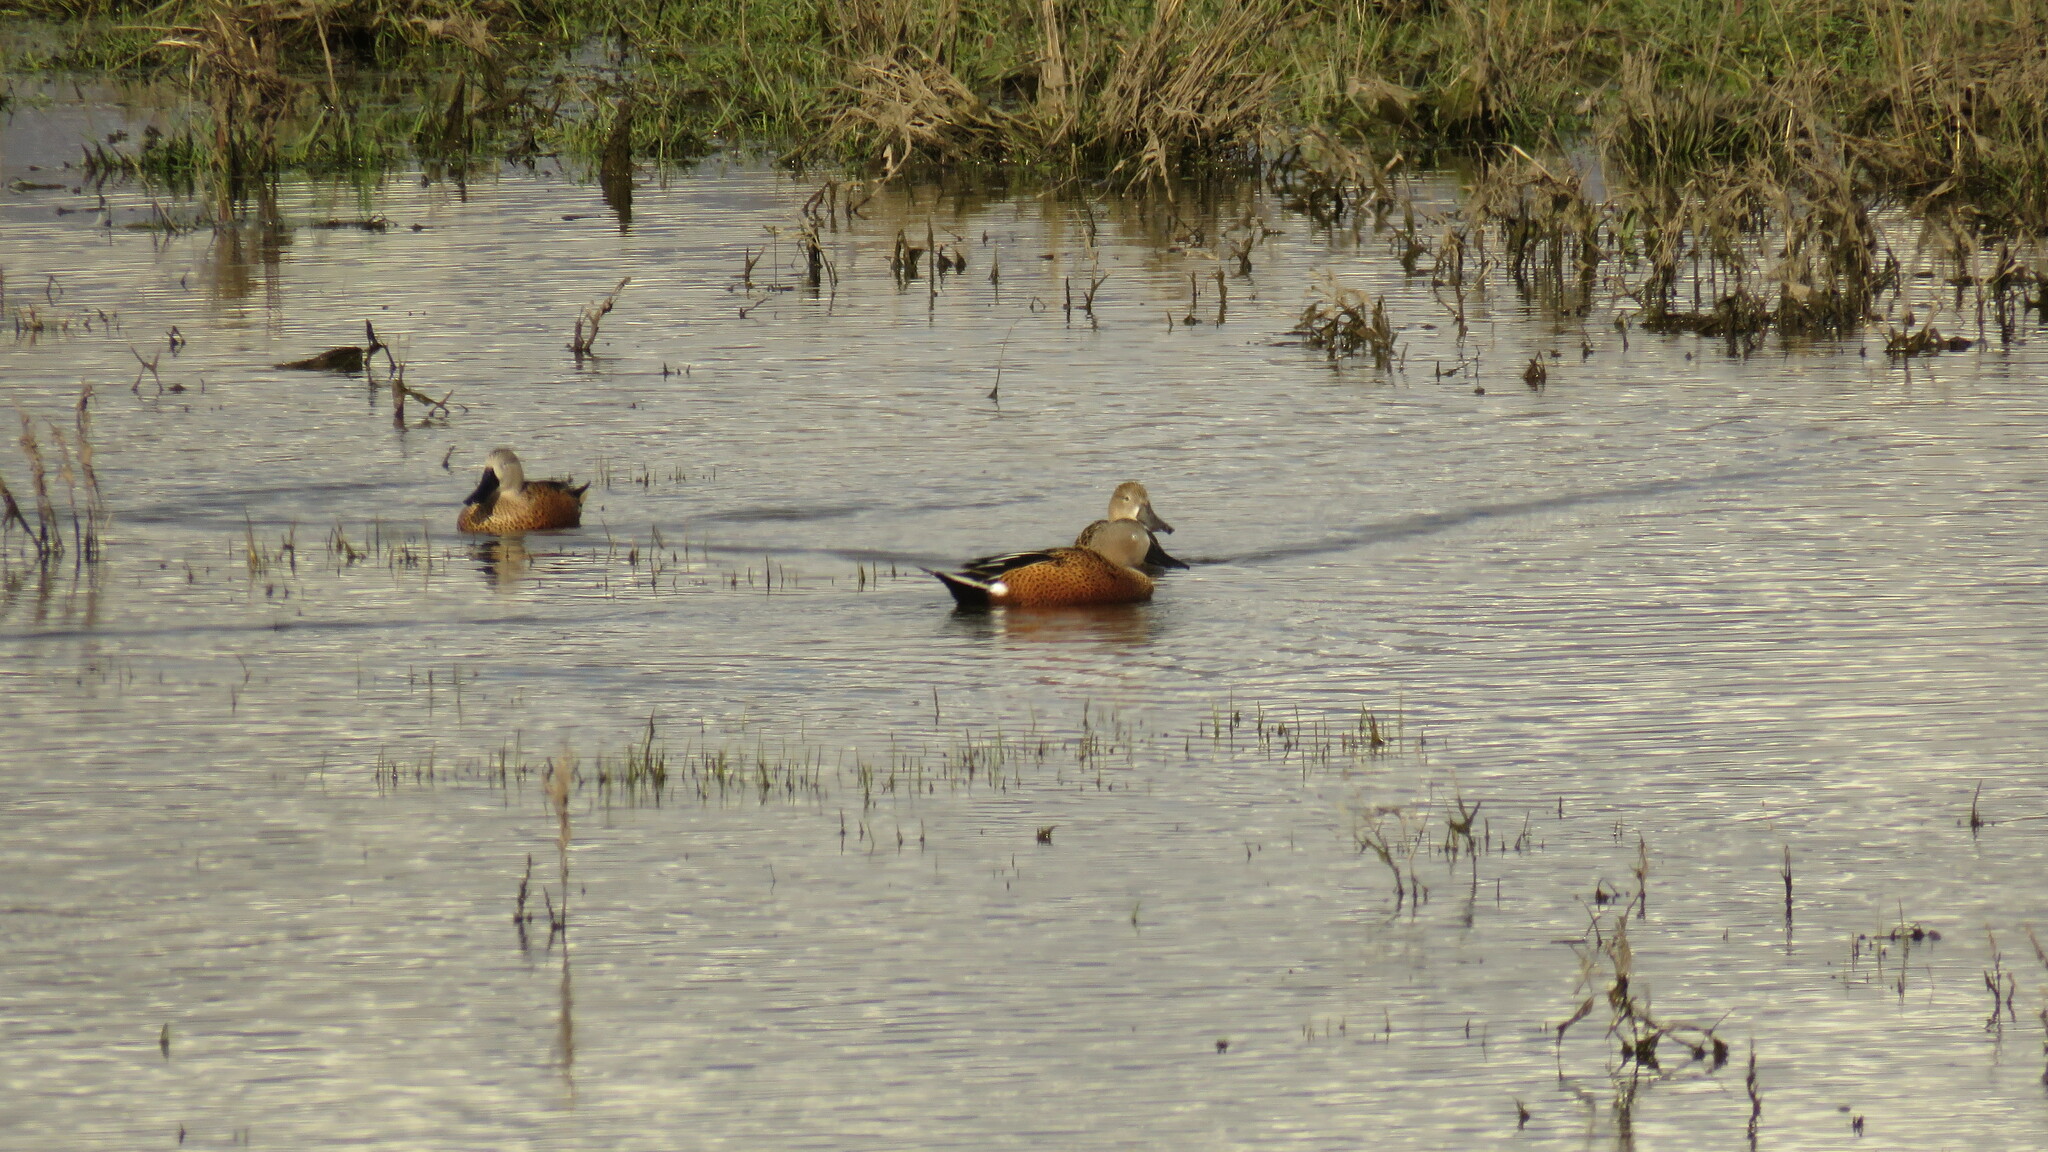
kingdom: Animalia
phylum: Chordata
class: Aves
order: Anseriformes
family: Anatidae
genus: Spatula
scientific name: Spatula platalea
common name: Red shoveler
